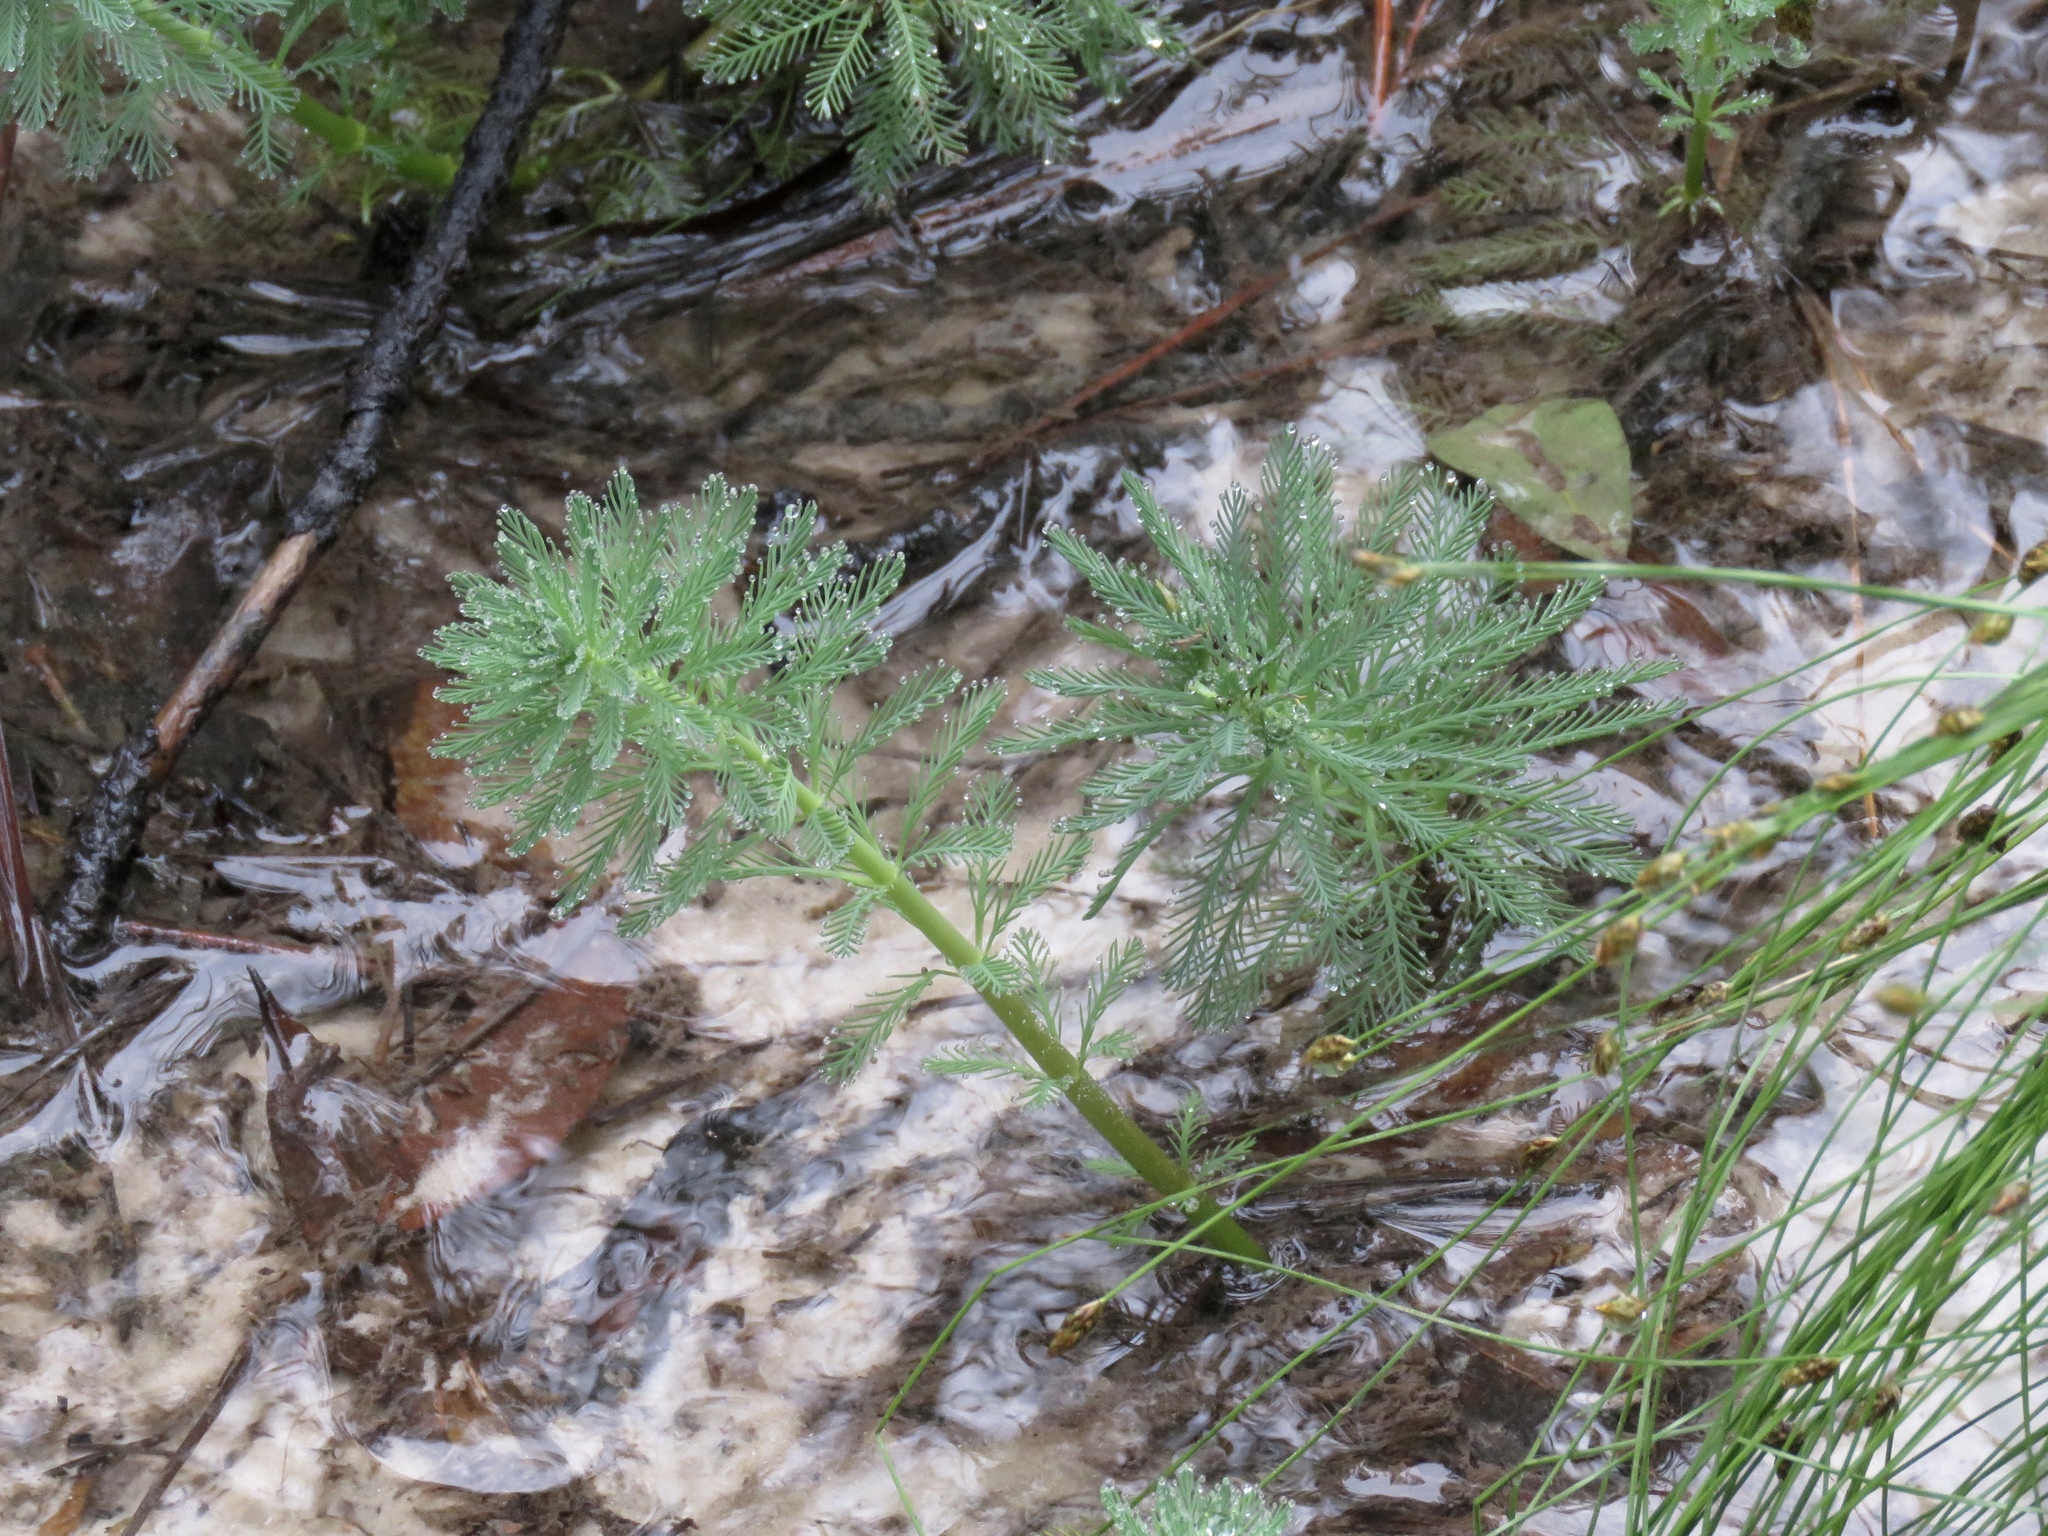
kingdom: Plantae
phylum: Tracheophyta
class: Magnoliopsida
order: Saxifragales
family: Haloragaceae
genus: Myriophyllum
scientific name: Myriophyllum aquaticum
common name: Parrot's feather
